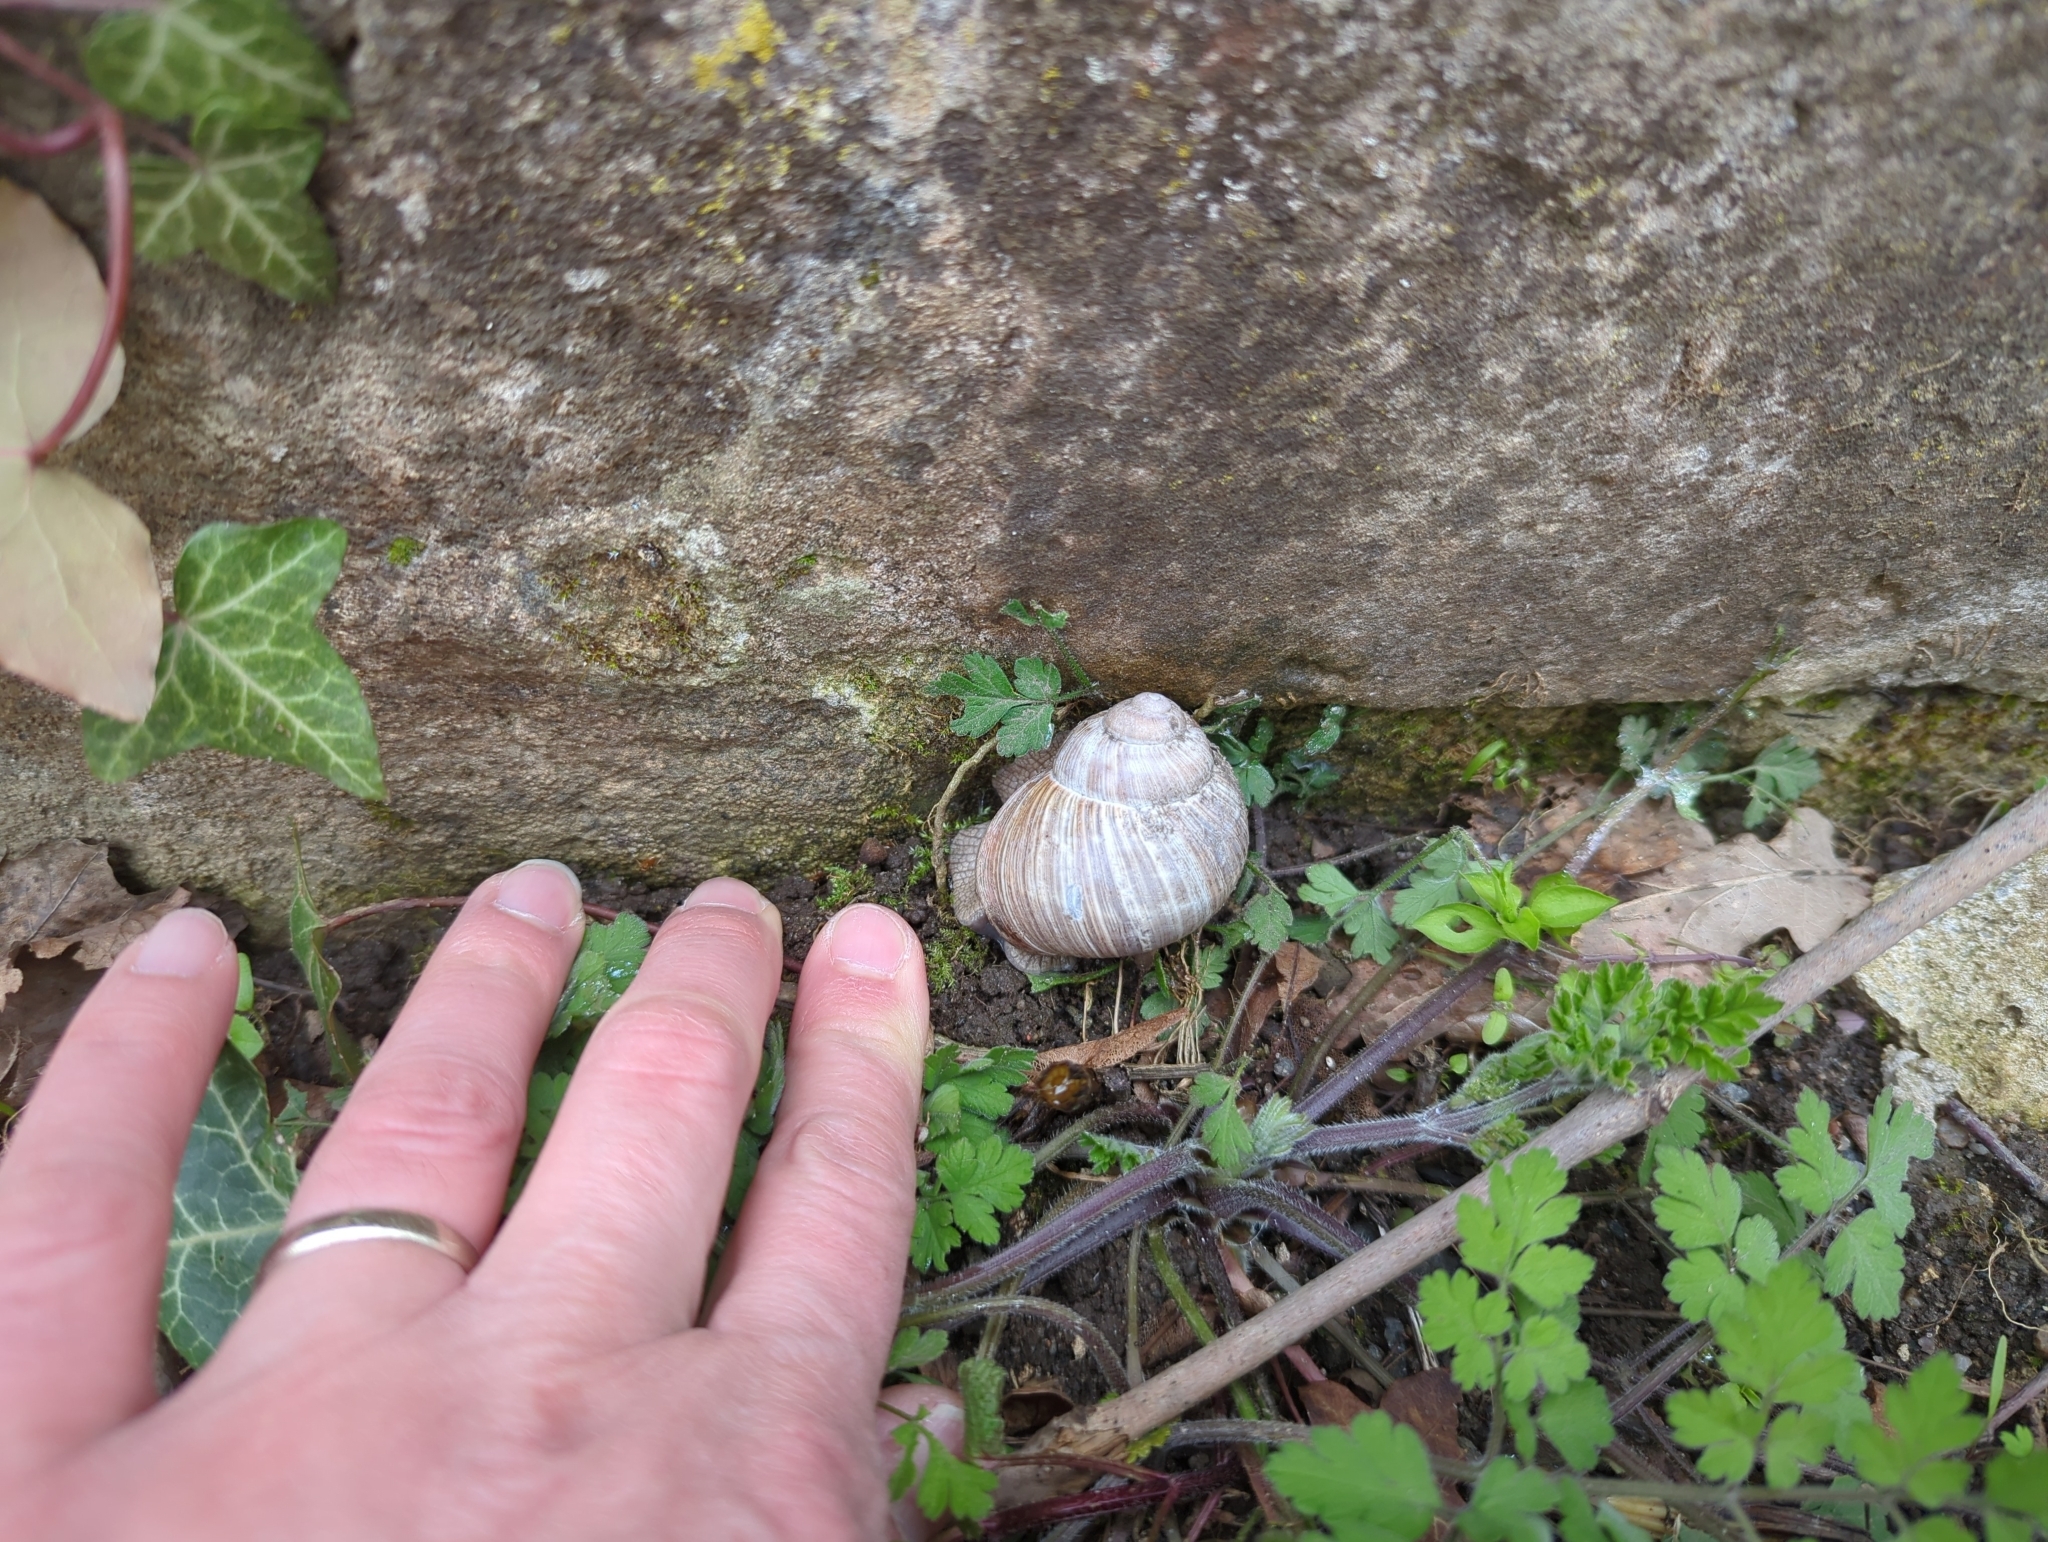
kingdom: Animalia
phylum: Mollusca
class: Gastropoda
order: Stylommatophora
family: Helicidae
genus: Helix
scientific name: Helix pomatia
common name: Roman snail
